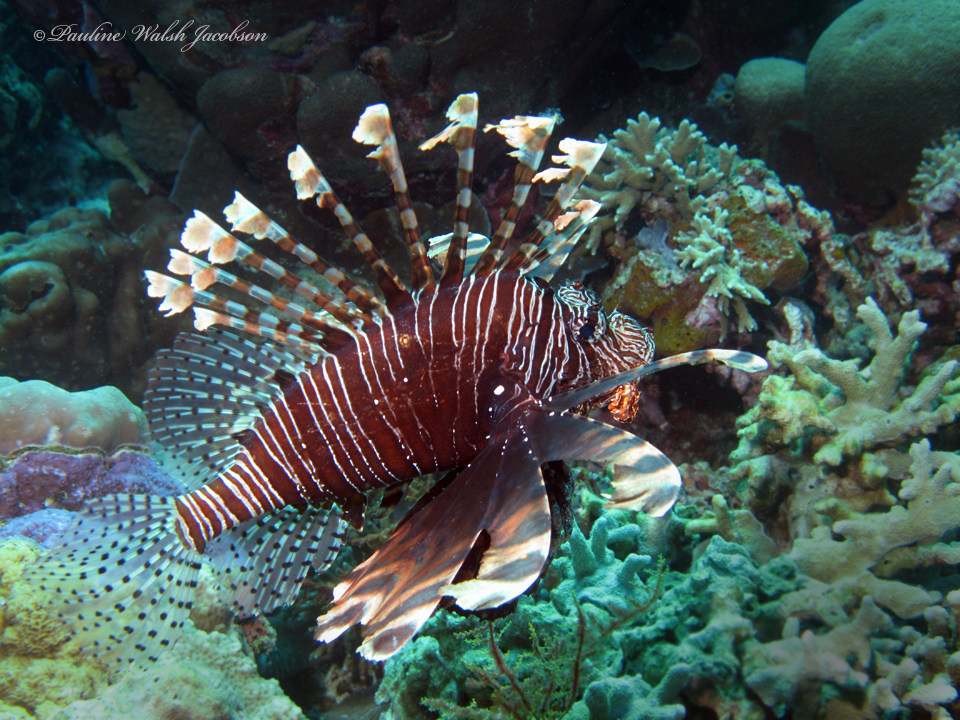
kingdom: Animalia
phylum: Chordata
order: Scorpaeniformes
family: Scorpaenidae
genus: Pterois
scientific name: Pterois volitans
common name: Lionfish
